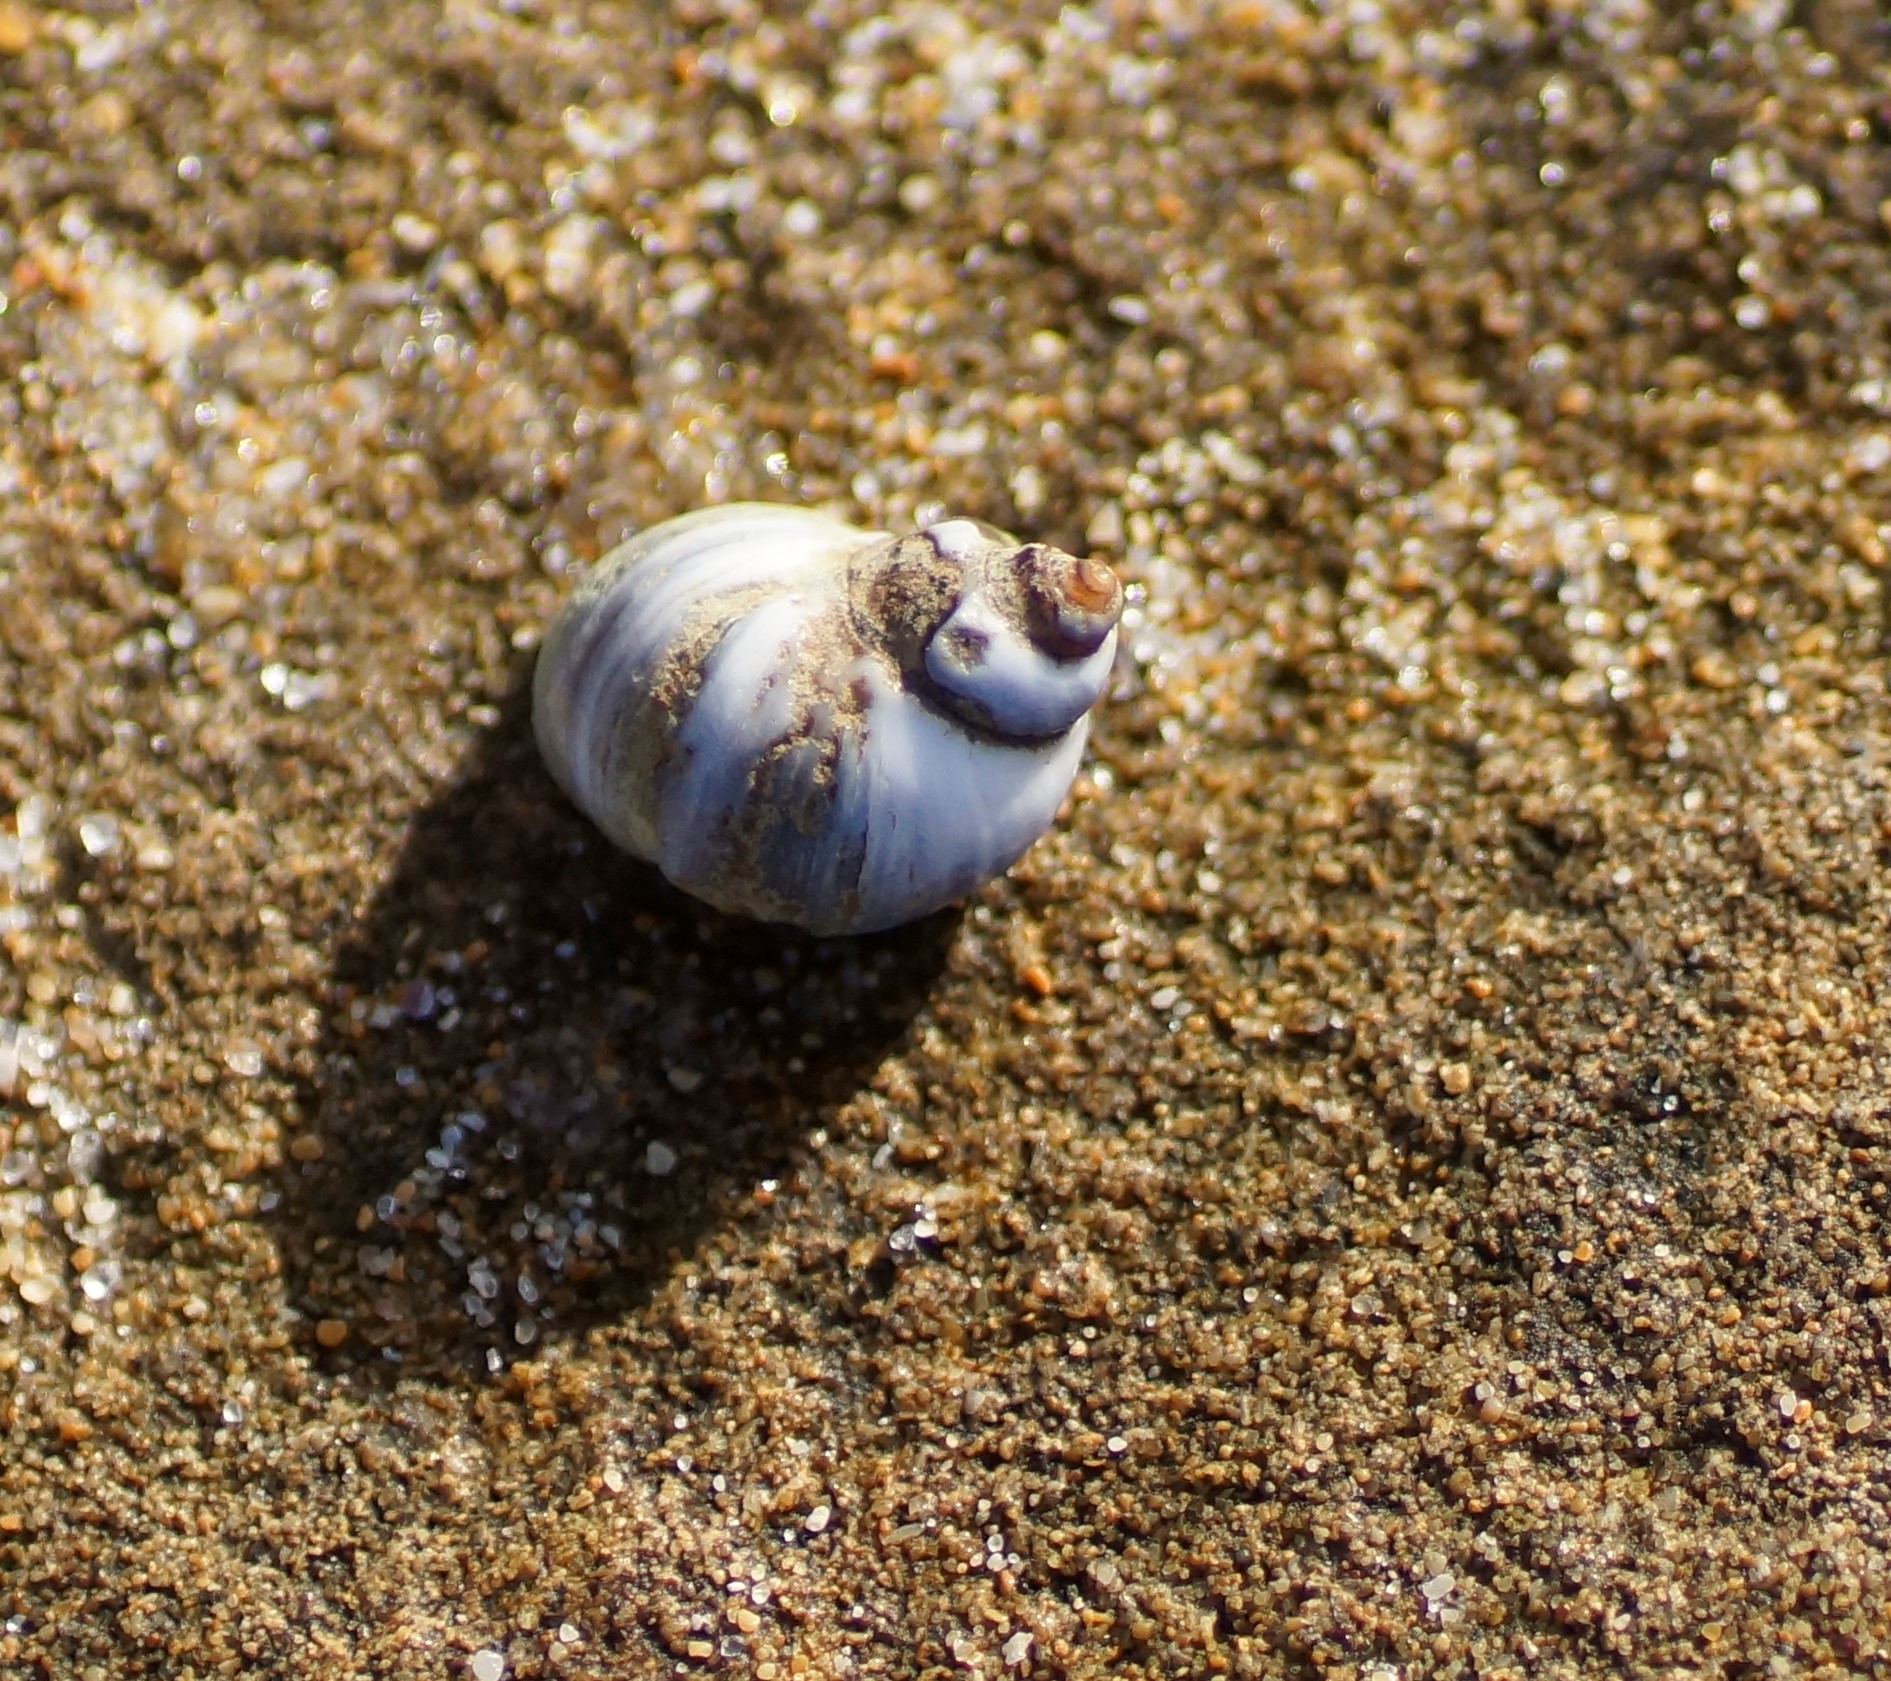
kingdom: Animalia
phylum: Mollusca
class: Gastropoda
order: Littorinimorpha
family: Littorinidae
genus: Austrolittorina
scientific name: Austrolittorina unifasciata
